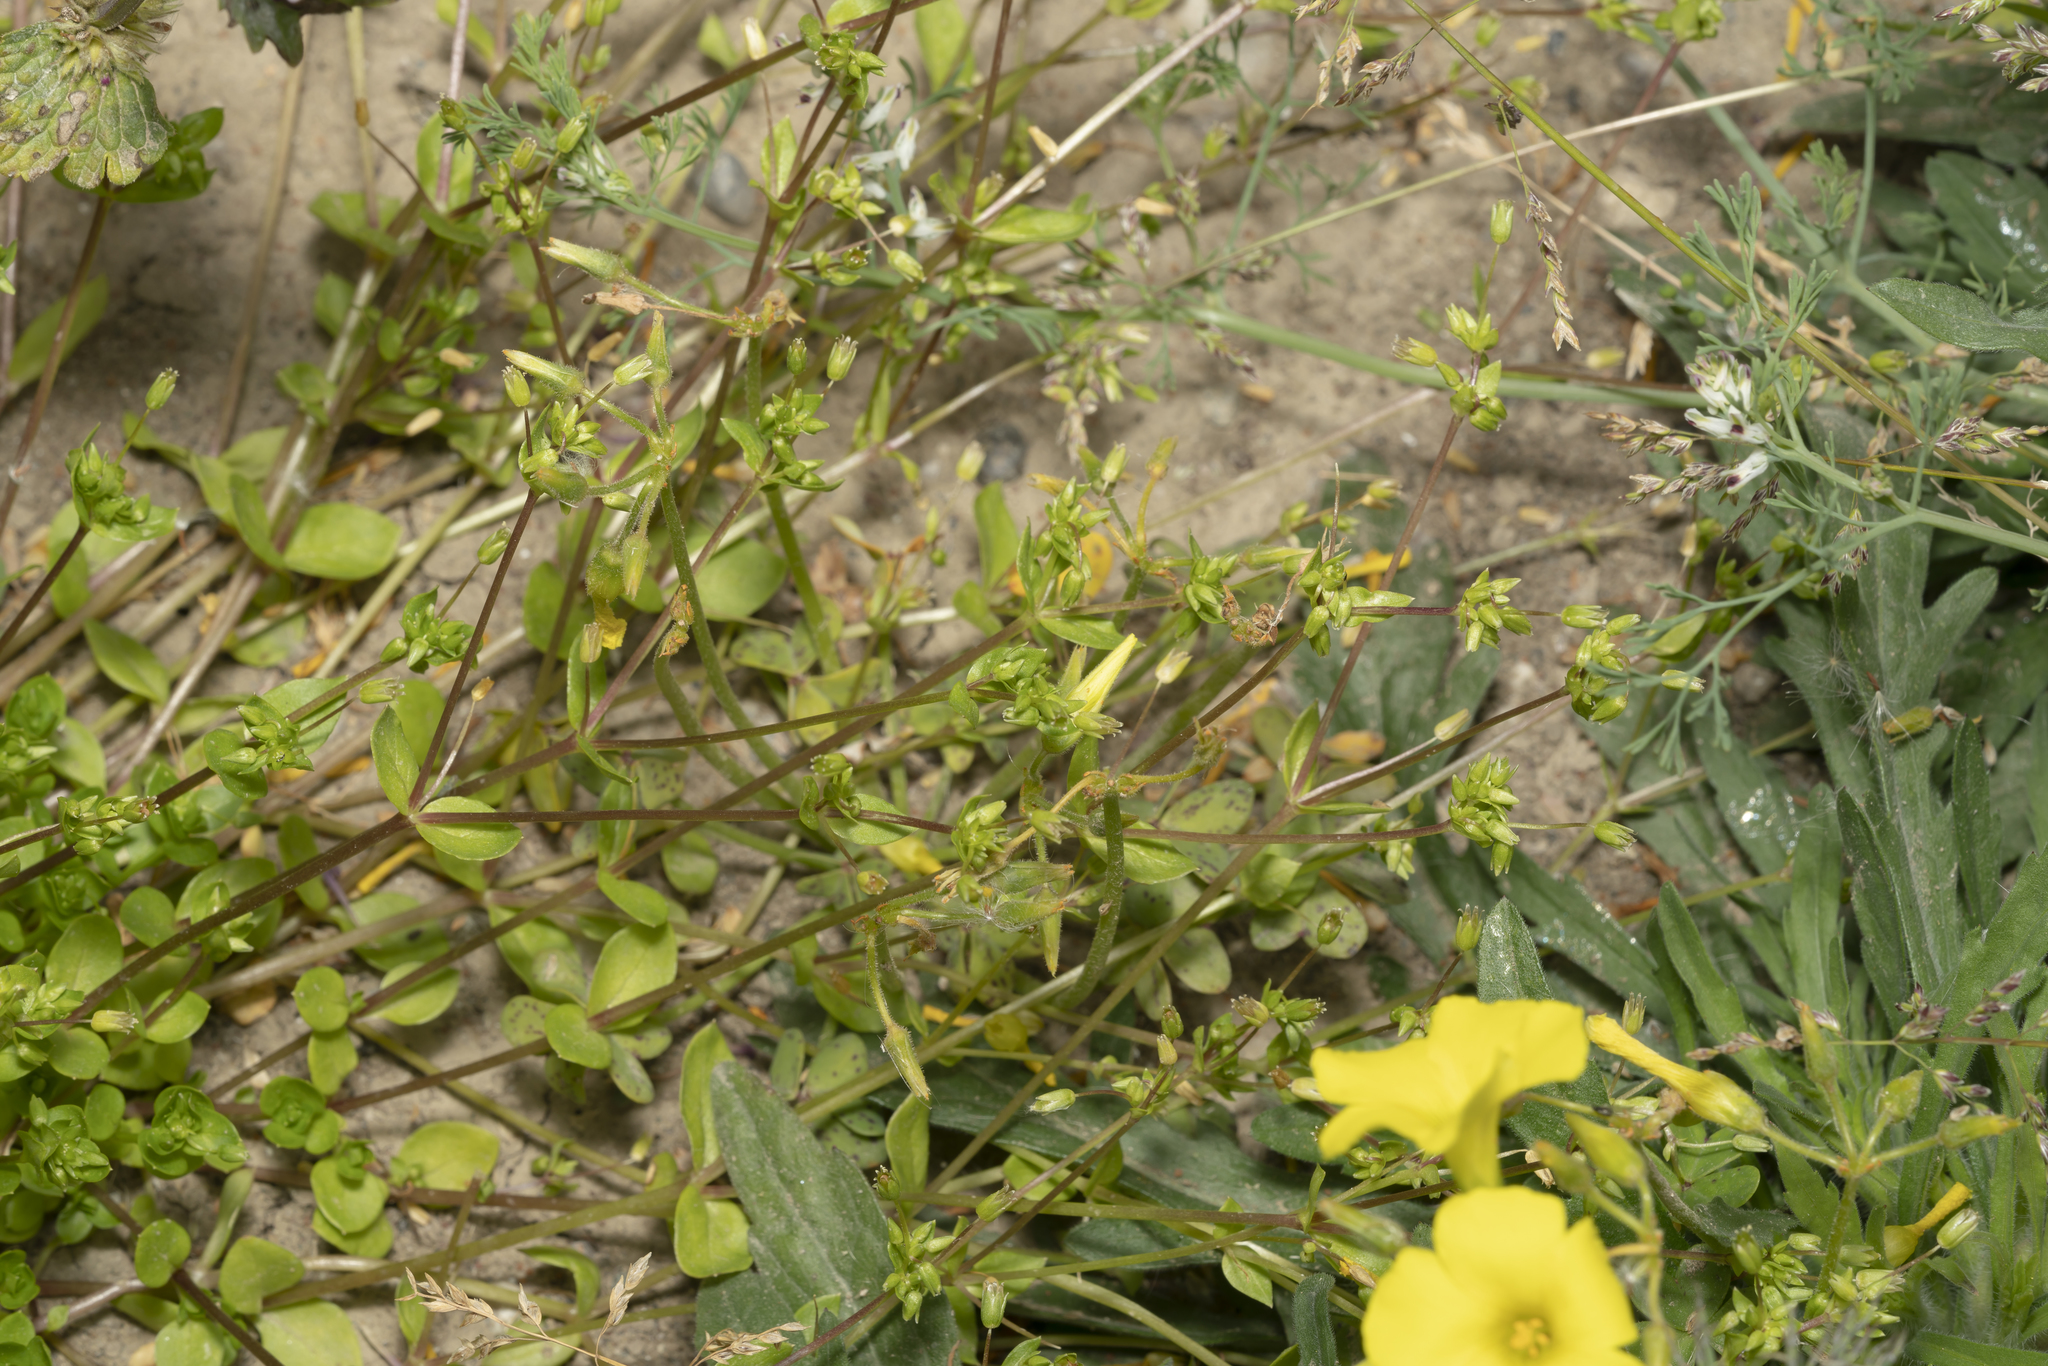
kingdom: Plantae
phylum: Tracheophyta
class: Magnoliopsida
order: Caryophyllales
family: Caryophyllaceae
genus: Stellaria
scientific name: Stellaria apetala
